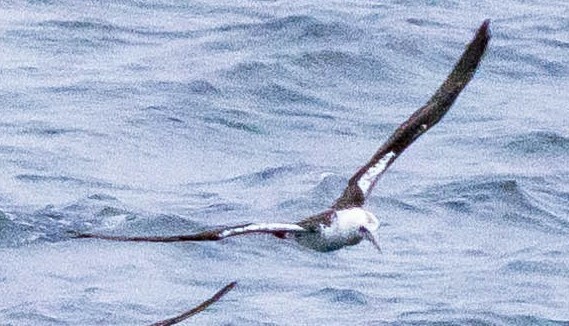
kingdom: Animalia
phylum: Chordata
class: Aves
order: Suliformes
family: Sulidae
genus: Morus
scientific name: Morus bassanus
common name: Northern gannet
